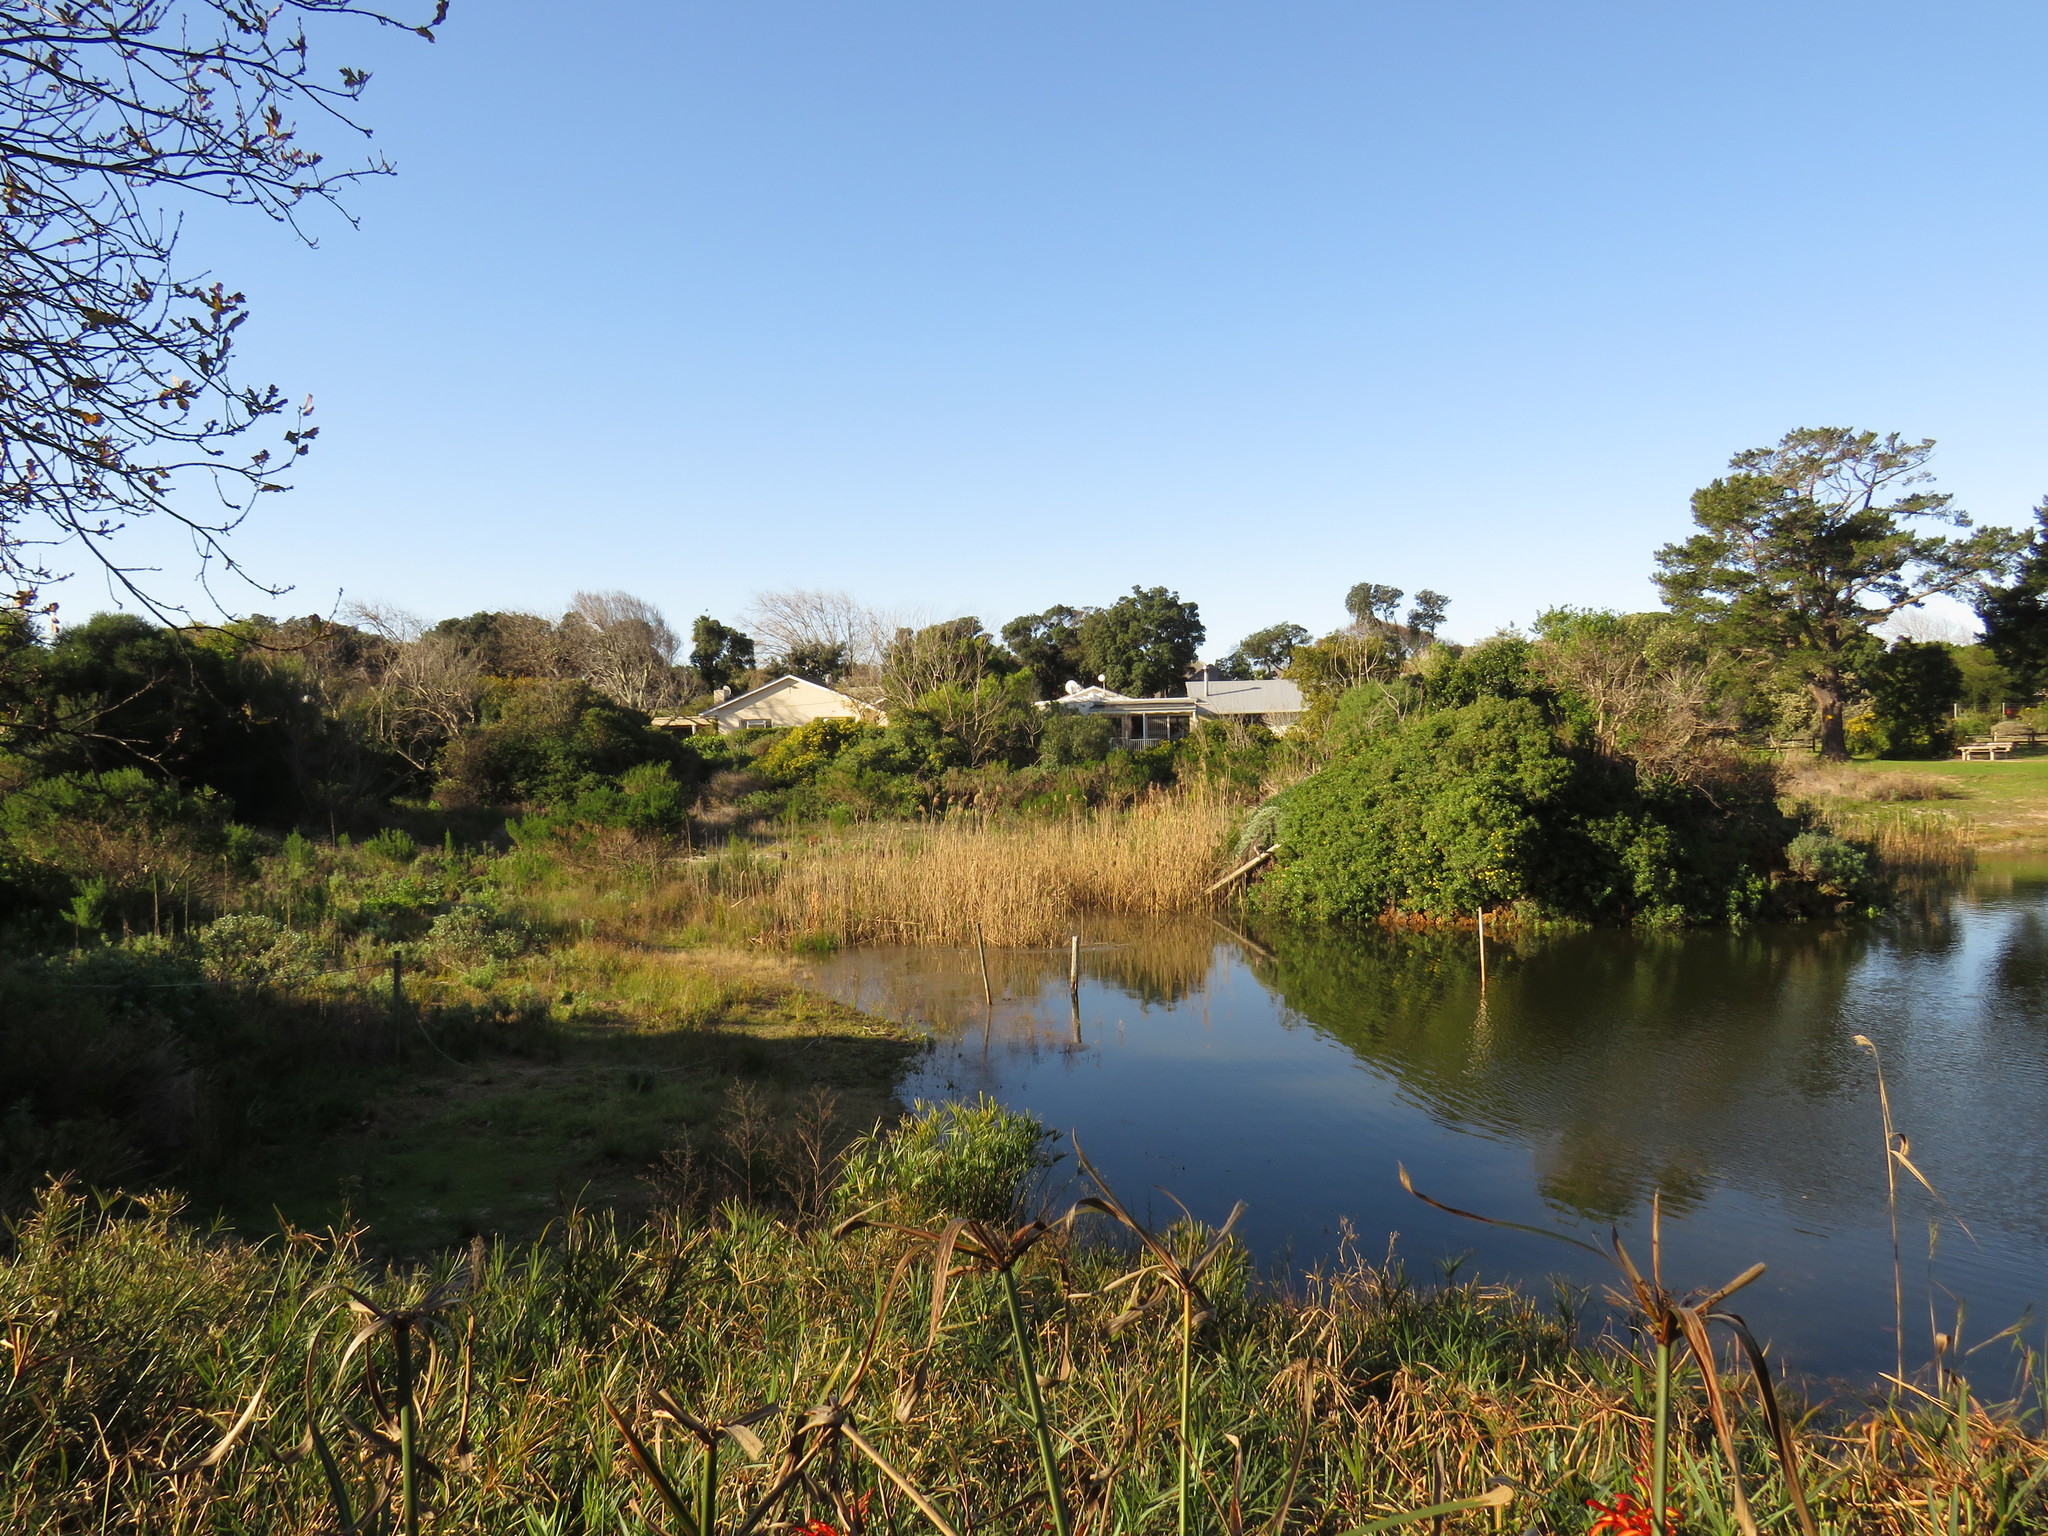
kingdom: Plantae
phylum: Tracheophyta
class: Liliopsida
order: Poales
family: Cyperaceae
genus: Cyperus
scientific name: Cyperus textilis
